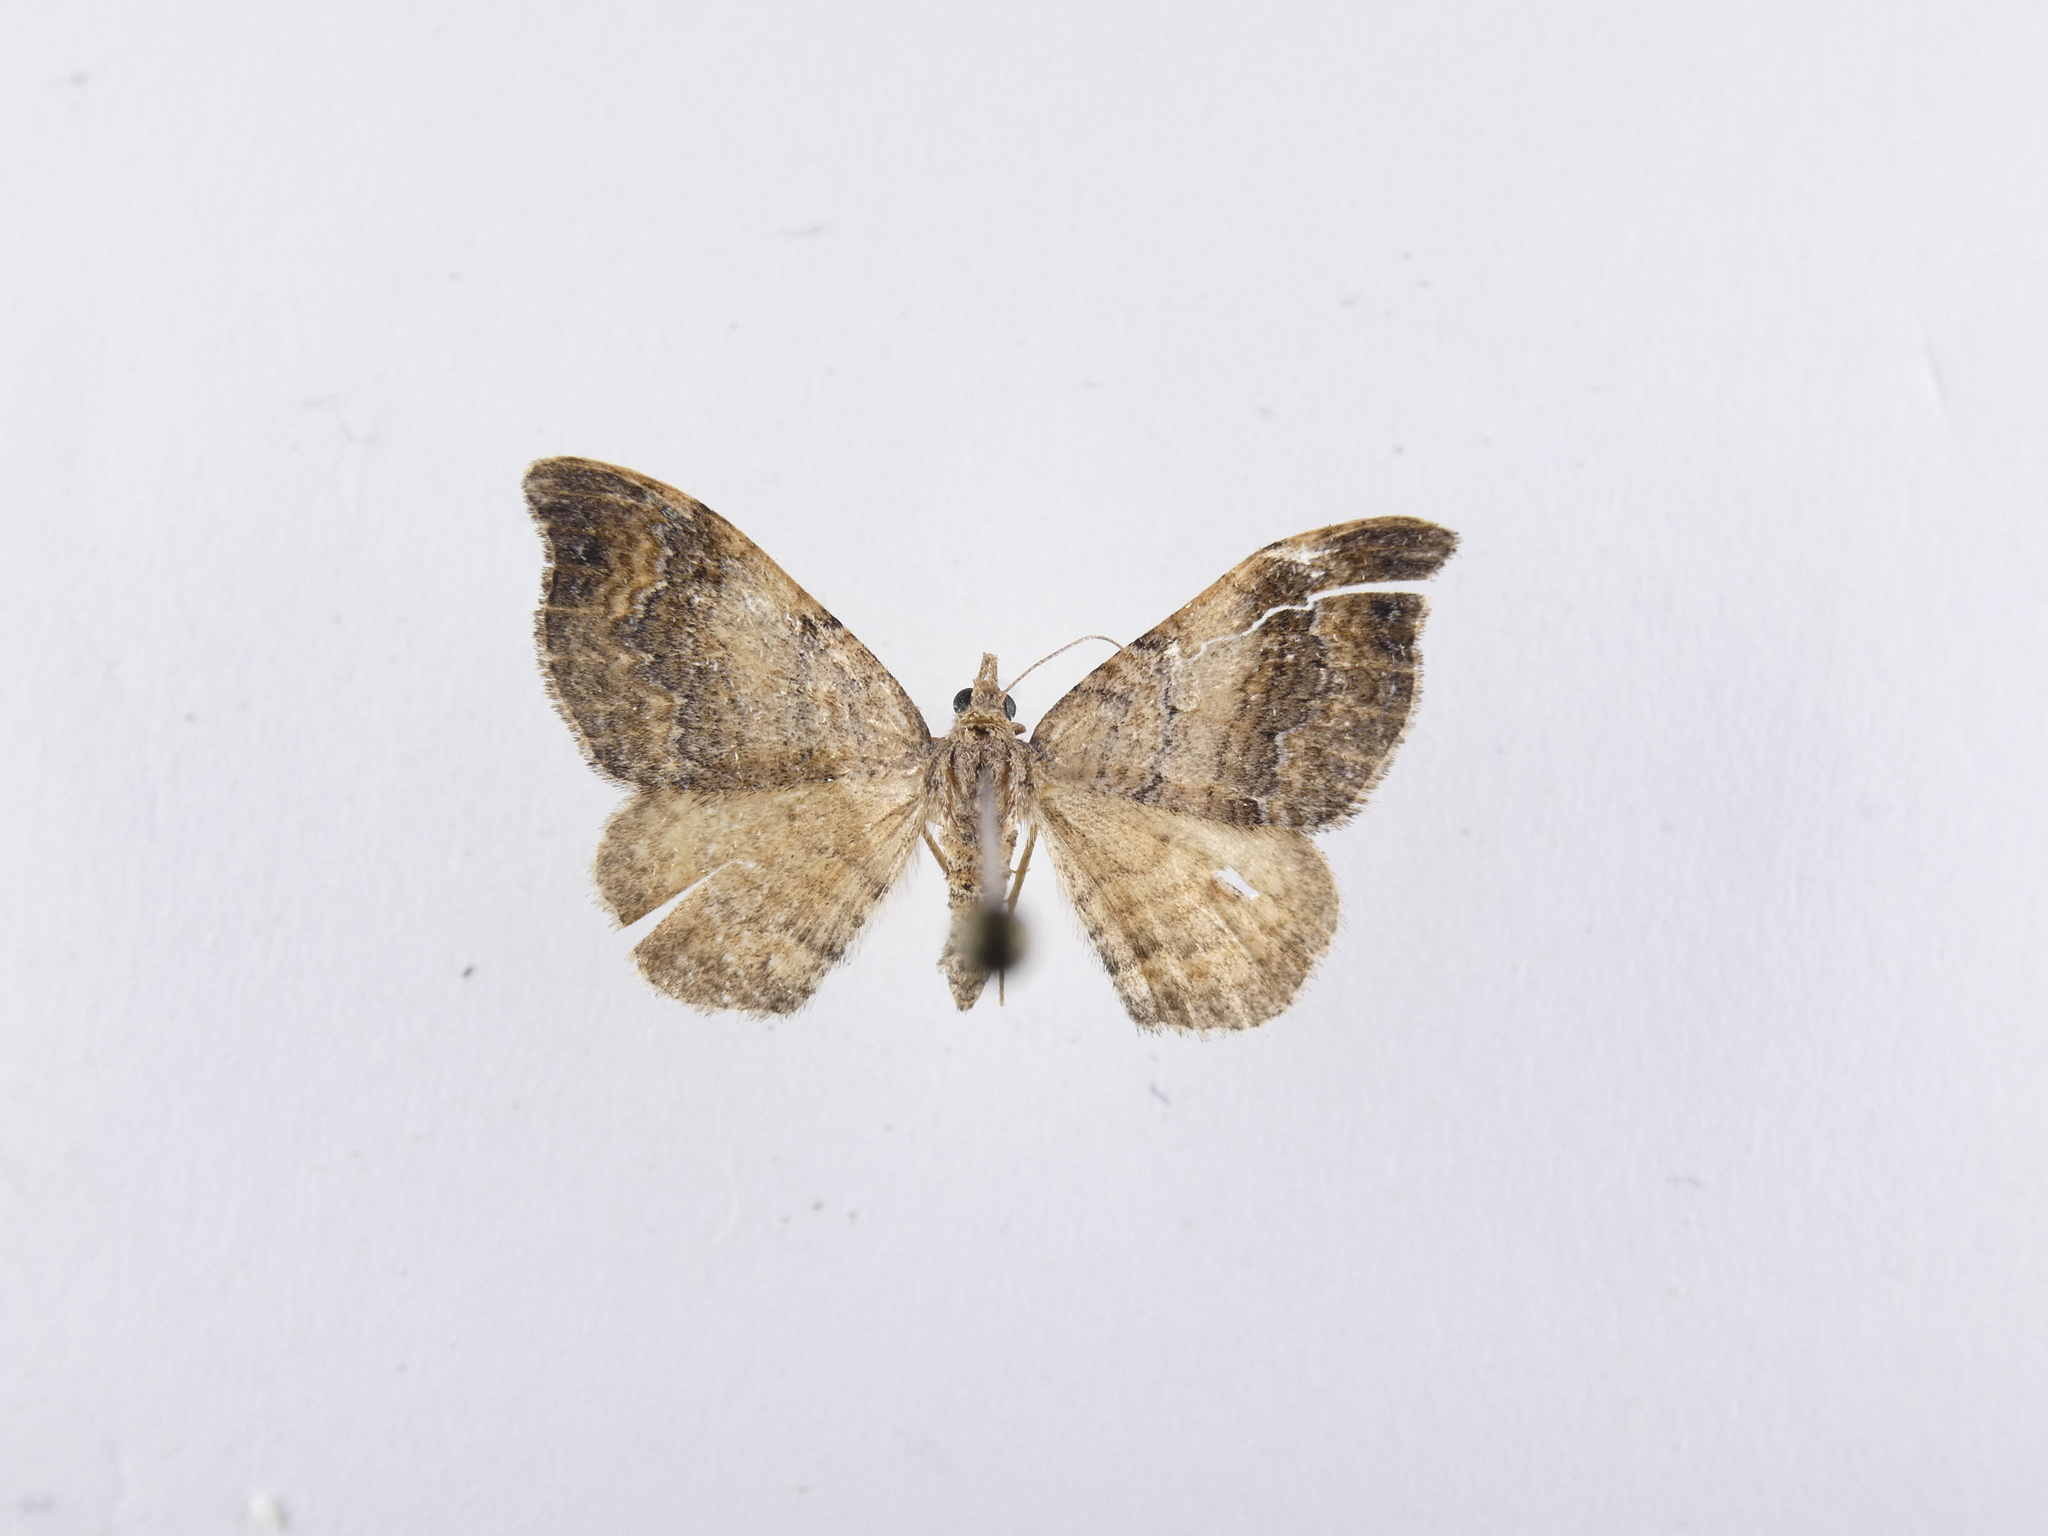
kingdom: Animalia
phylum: Arthropoda
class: Insecta
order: Lepidoptera
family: Geometridae
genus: Homodotis
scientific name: Homodotis megaspilata
